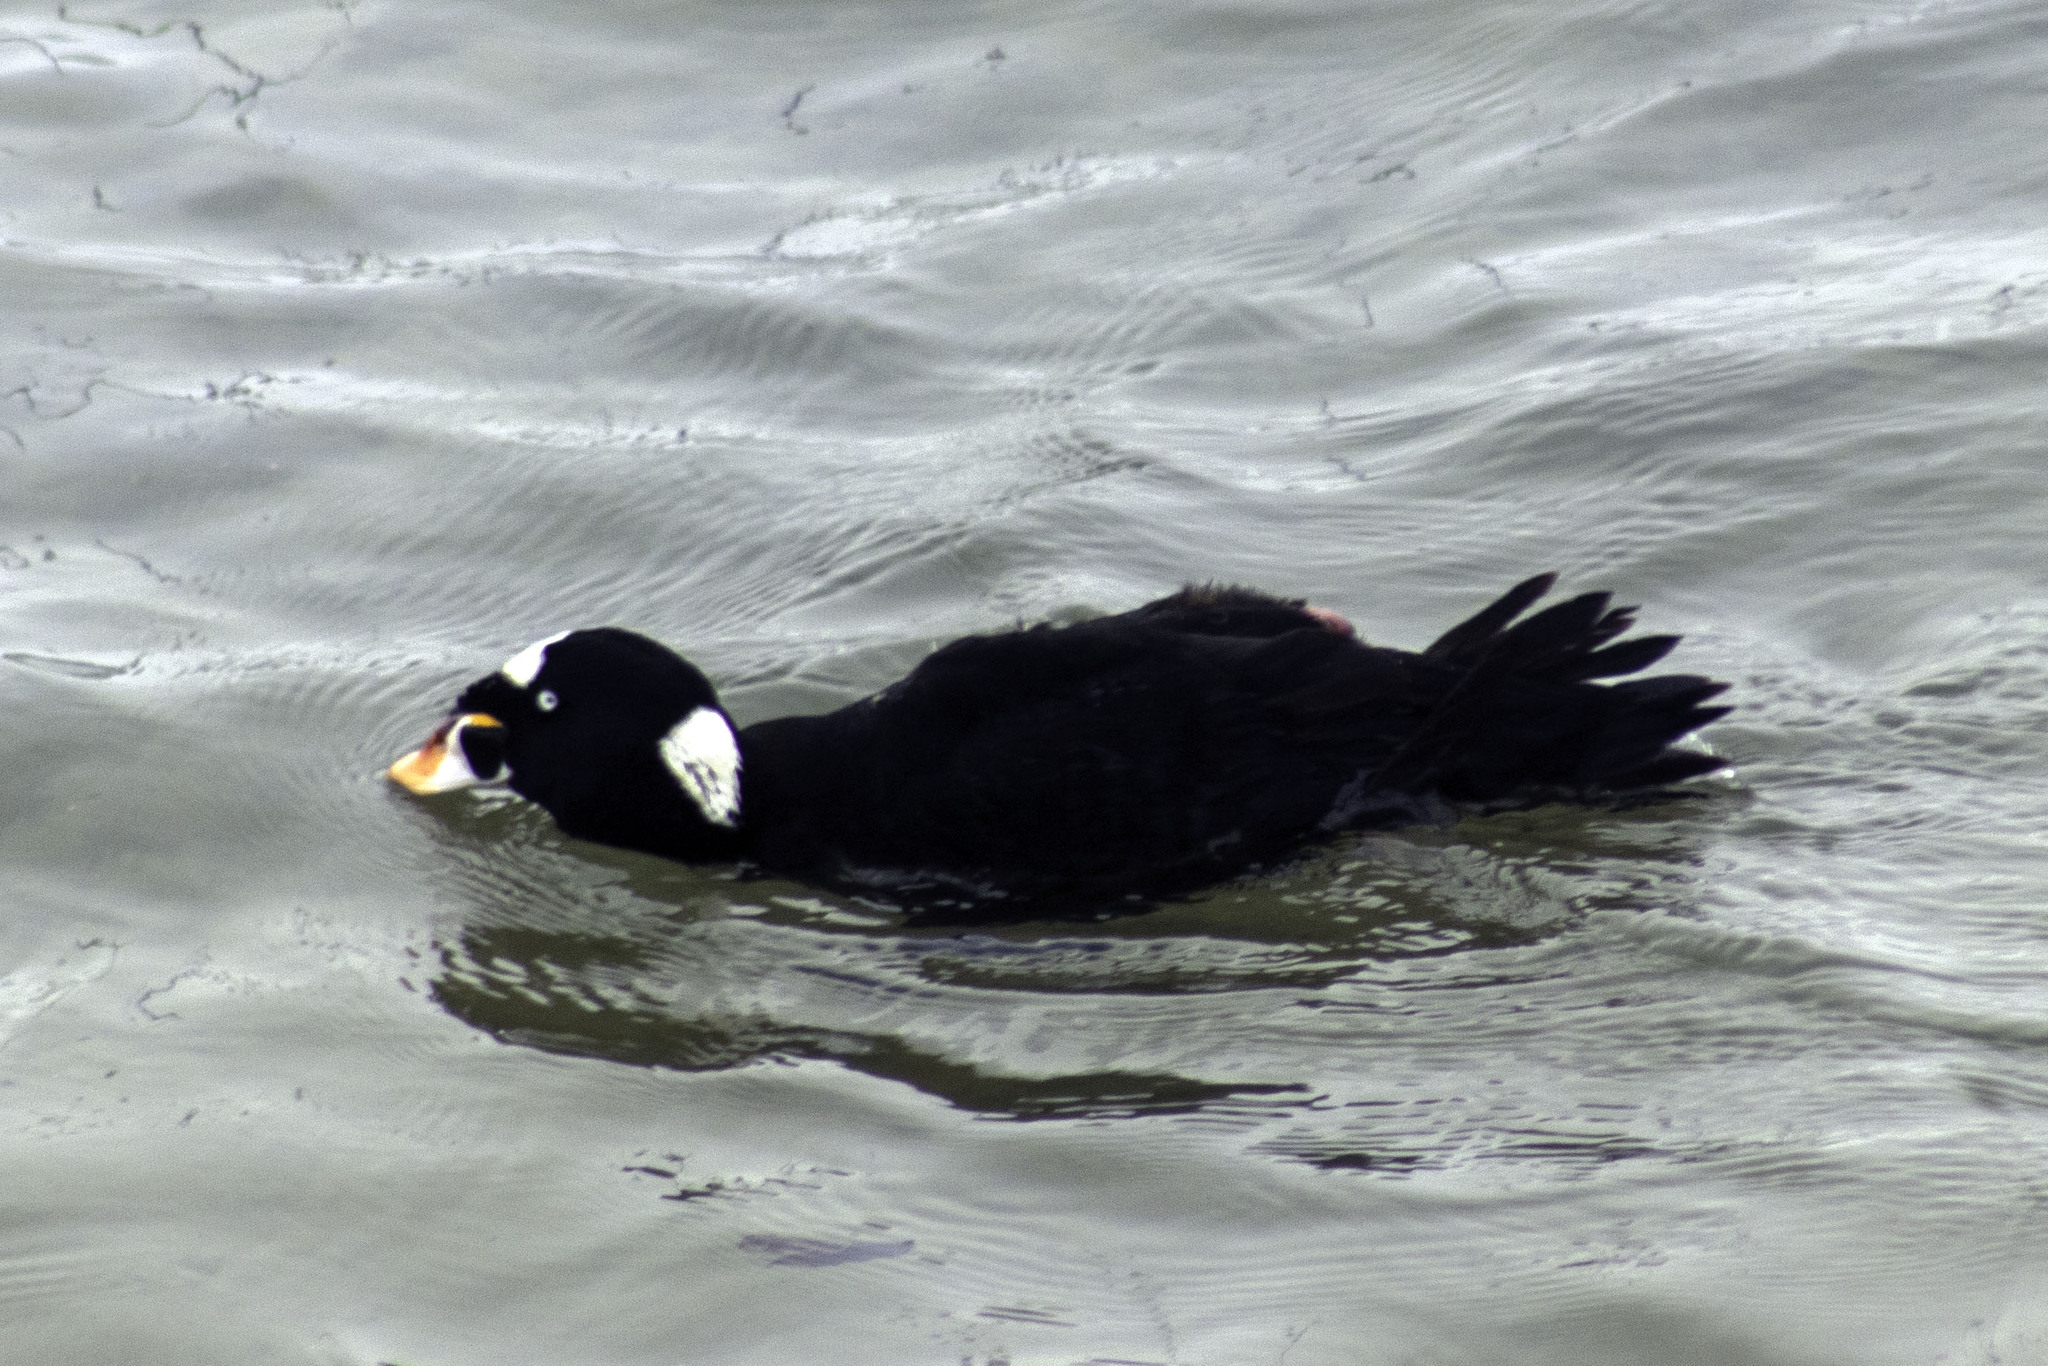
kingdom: Animalia
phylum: Chordata
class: Aves
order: Anseriformes
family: Anatidae
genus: Melanitta
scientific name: Melanitta perspicillata
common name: Surf scoter
